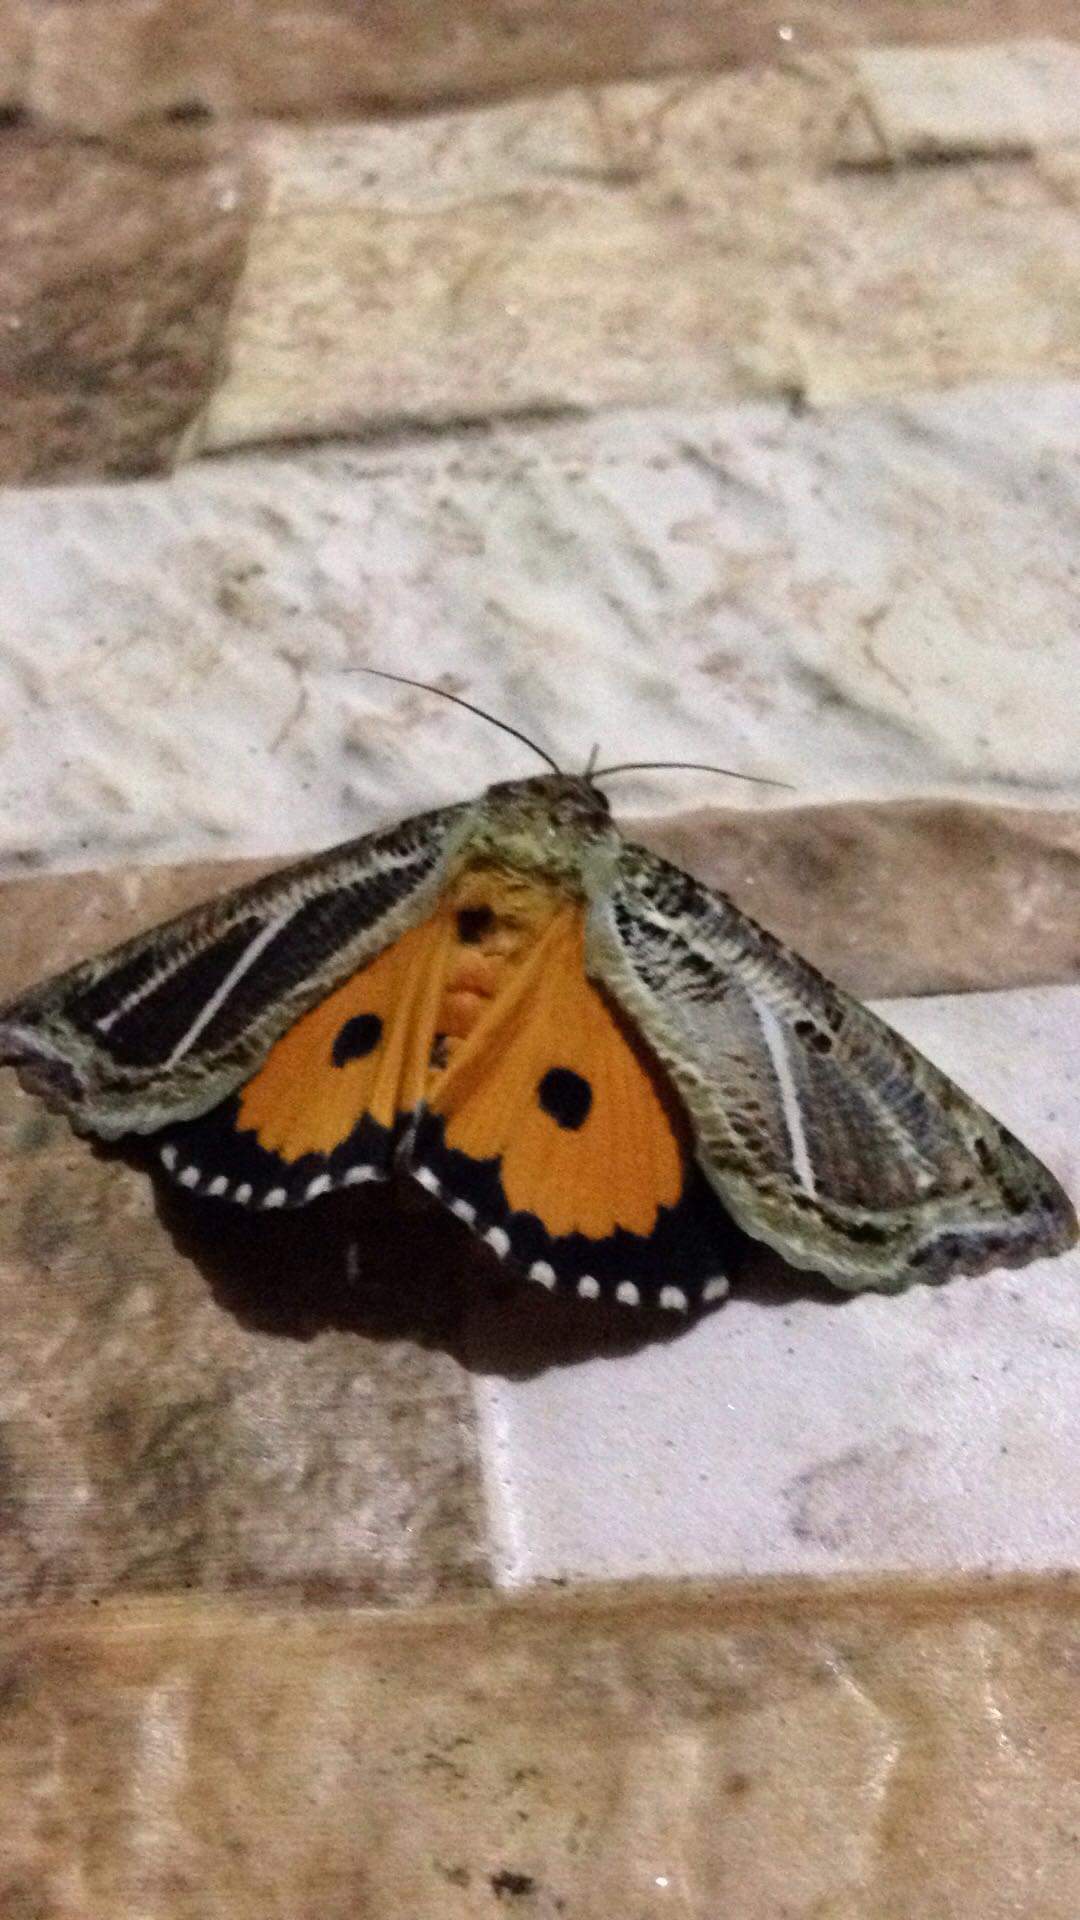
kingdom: Animalia
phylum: Arthropoda
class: Insecta
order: Lepidoptera
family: Erebidae
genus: Eudocima
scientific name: Eudocima materna
